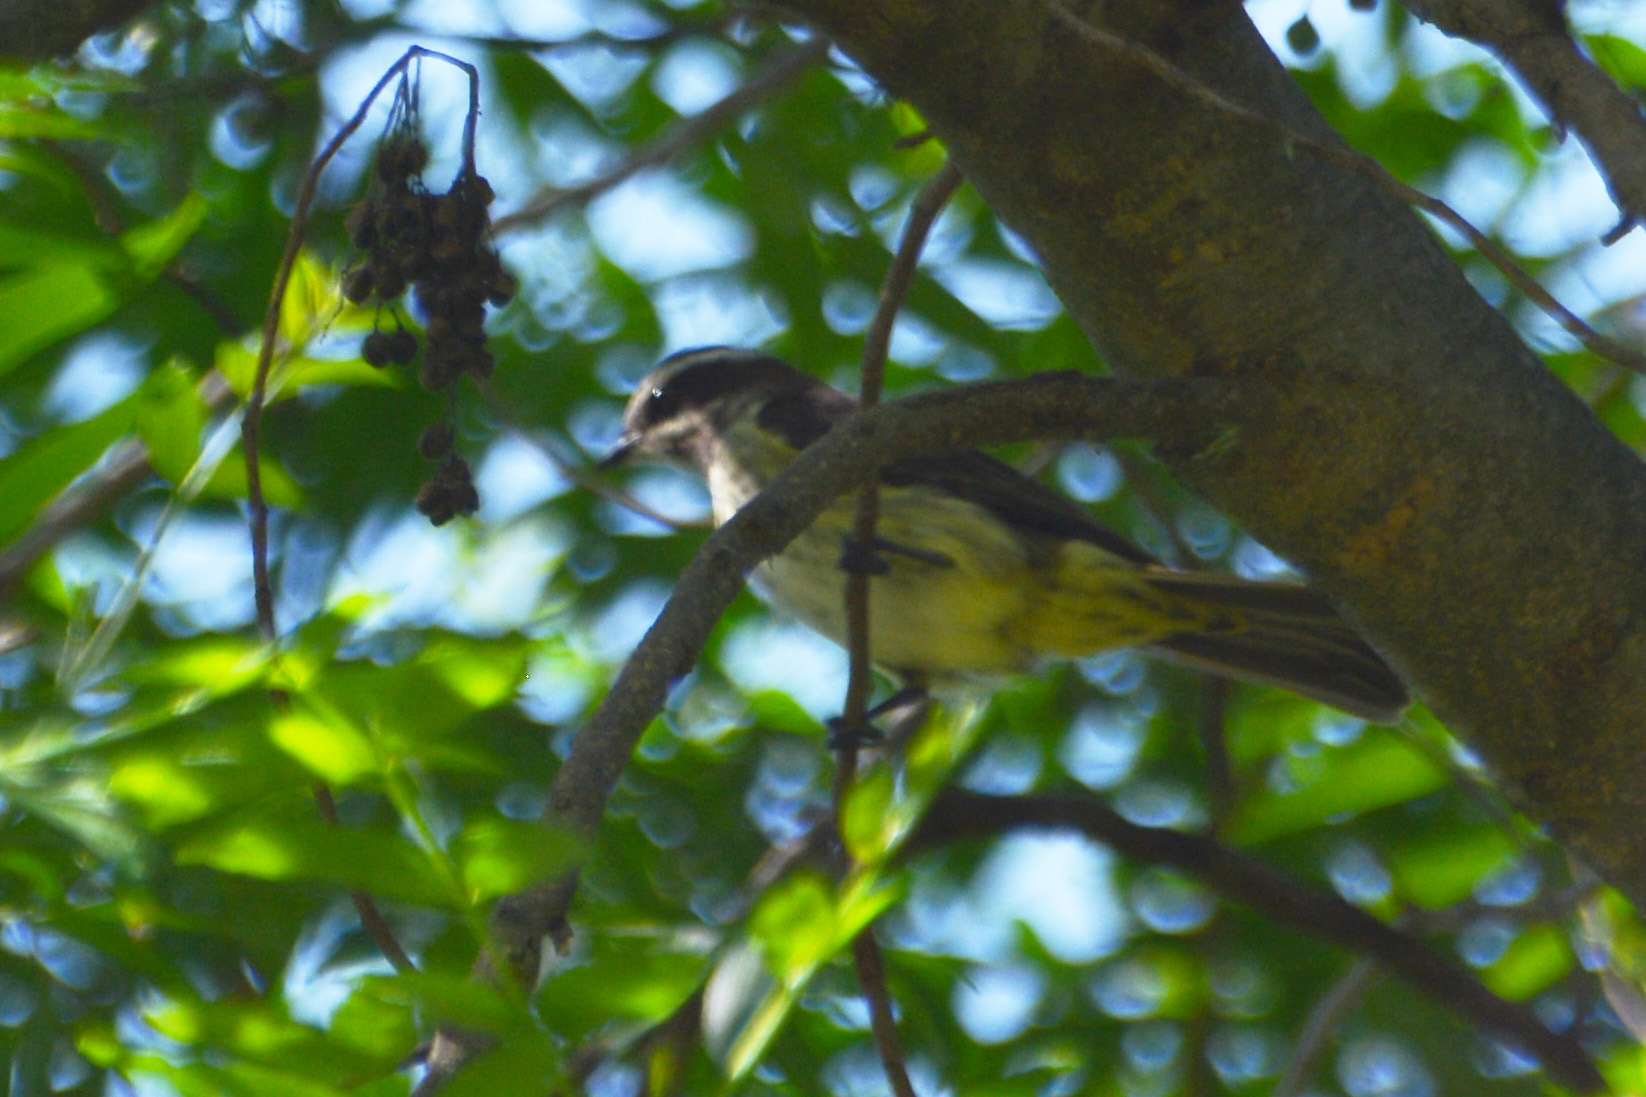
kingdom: Animalia
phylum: Chordata
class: Aves
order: Passeriformes
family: Tyrannidae
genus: Legatus
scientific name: Legatus leucophaius
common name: Piratic flycatcher
